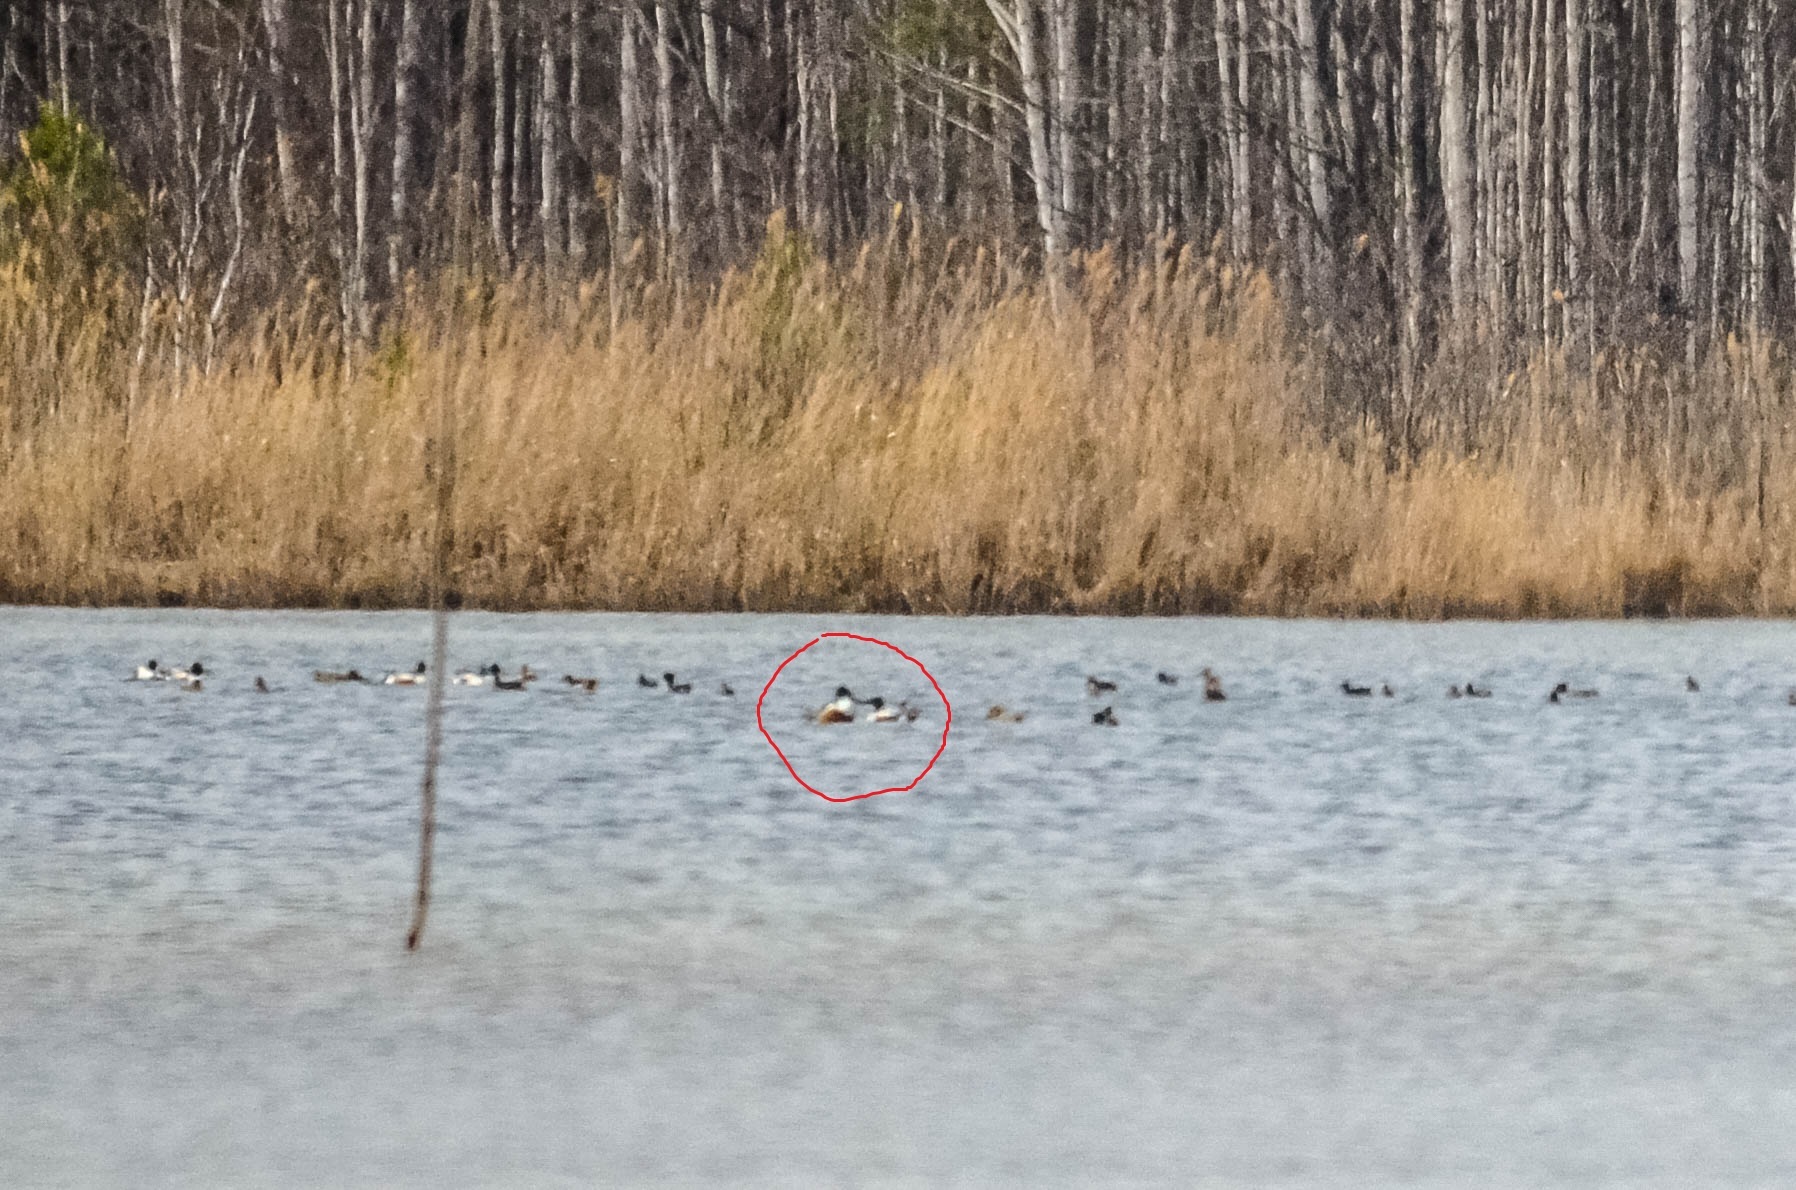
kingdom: Animalia
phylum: Chordata
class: Aves
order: Anseriformes
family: Anatidae
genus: Spatula
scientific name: Spatula clypeata
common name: Northern shoveler
